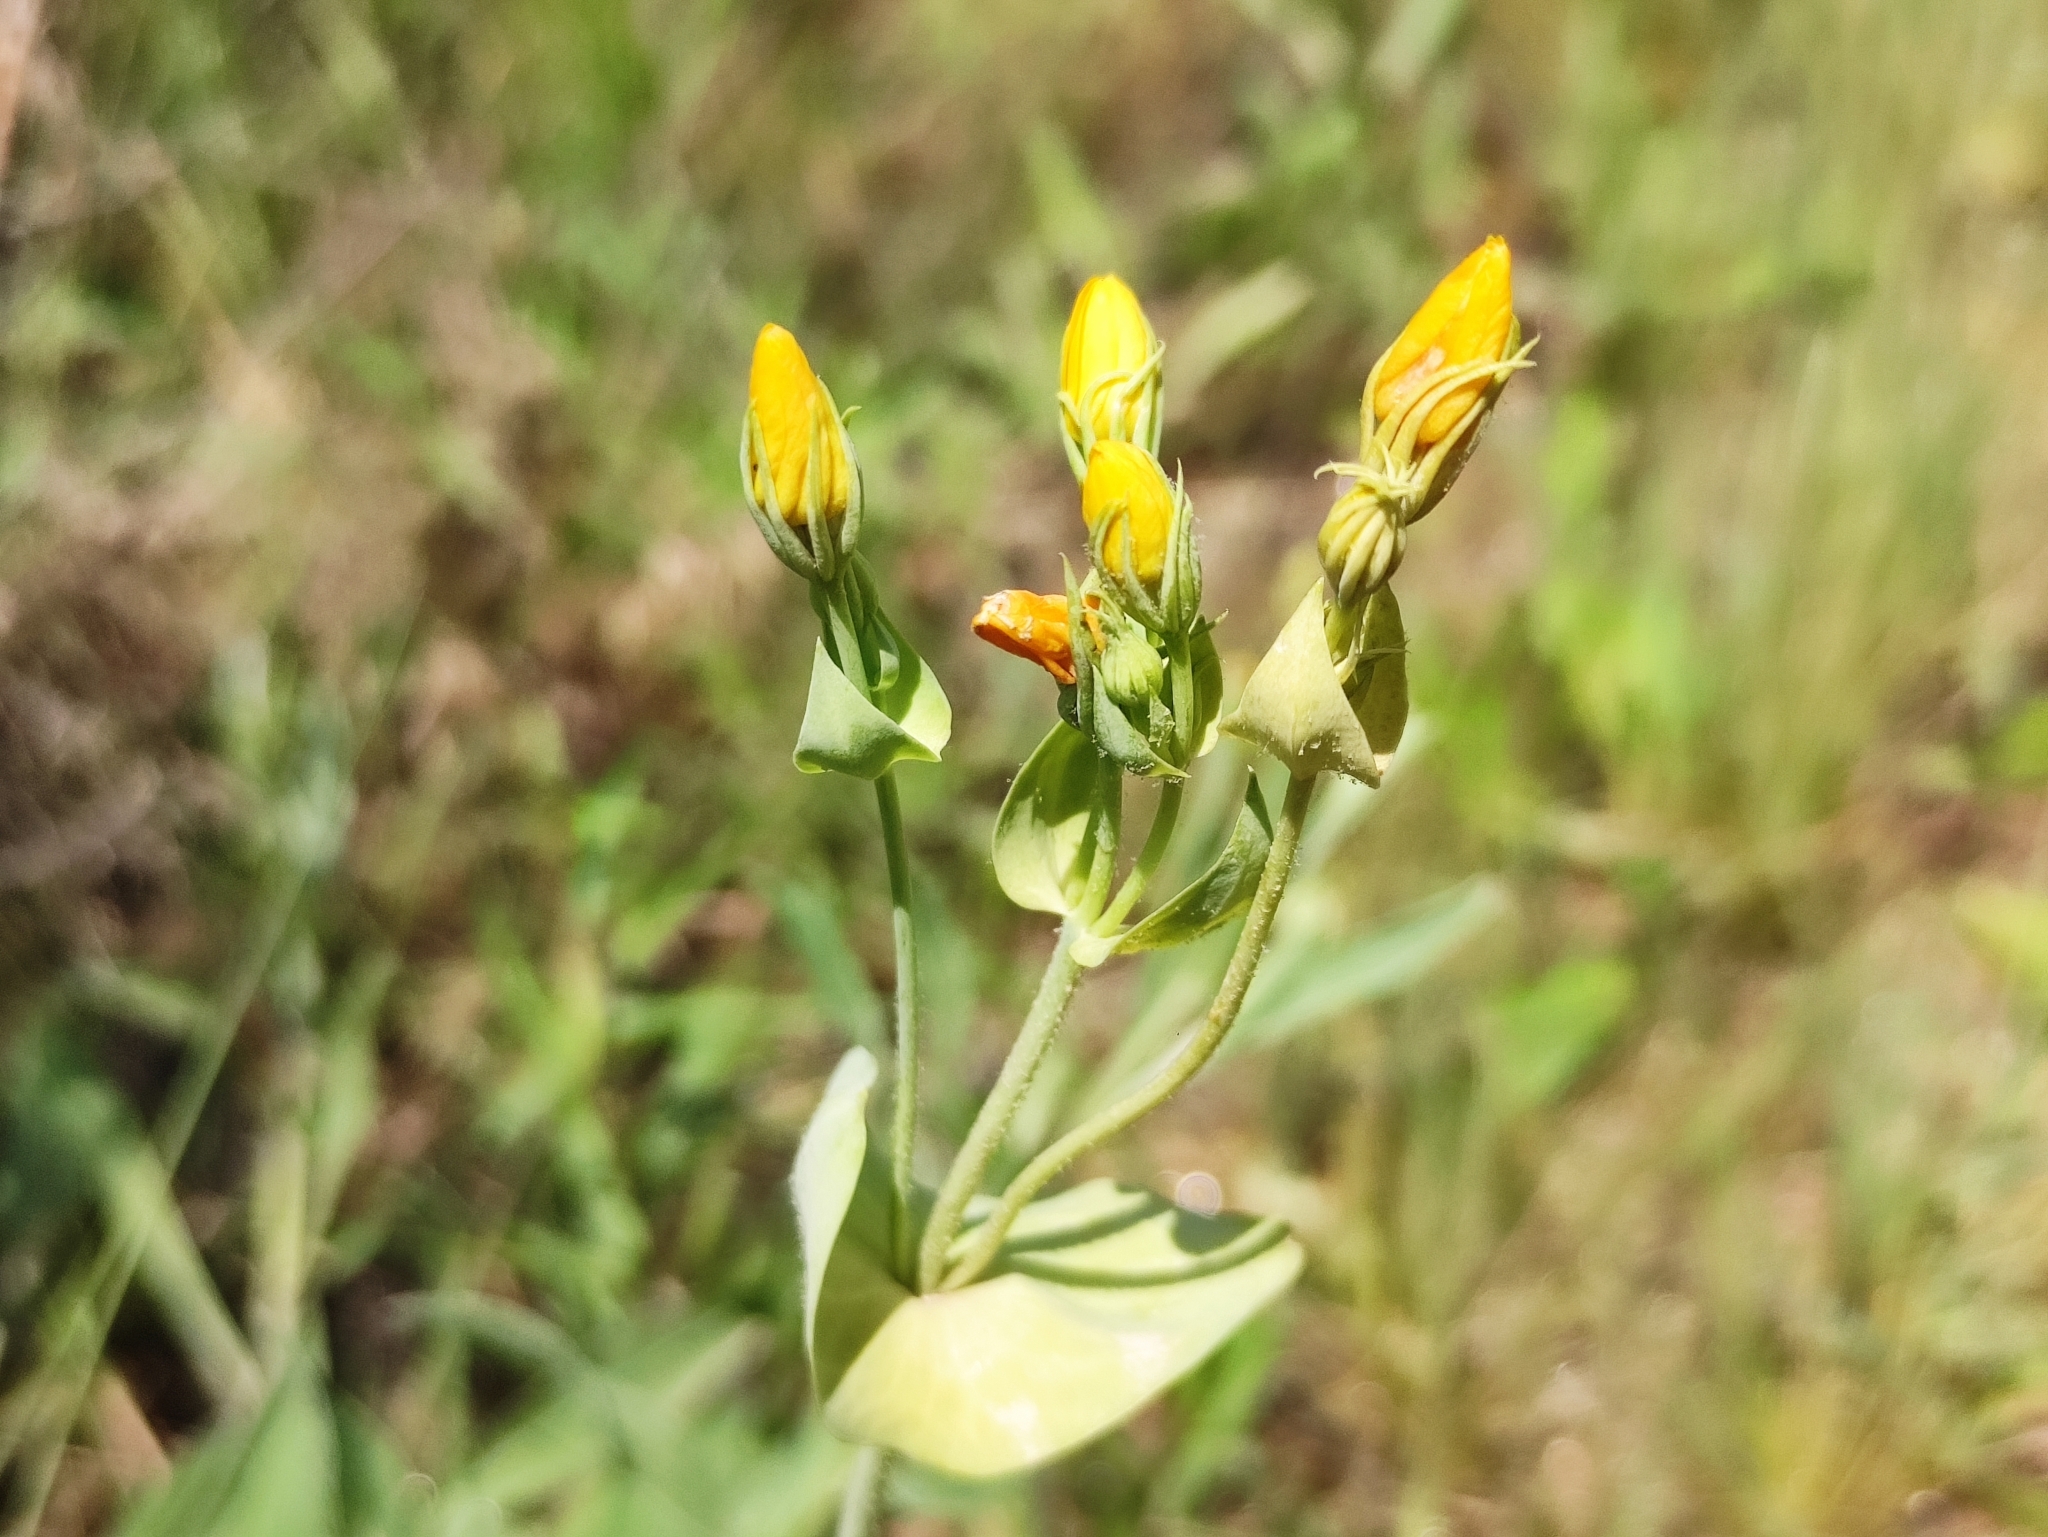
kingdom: Plantae
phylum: Tracheophyta
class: Magnoliopsida
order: Gentianales
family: Gentianaceae
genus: Blackstonia
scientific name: Blackstonia perfoliata
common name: Yellow-wort
